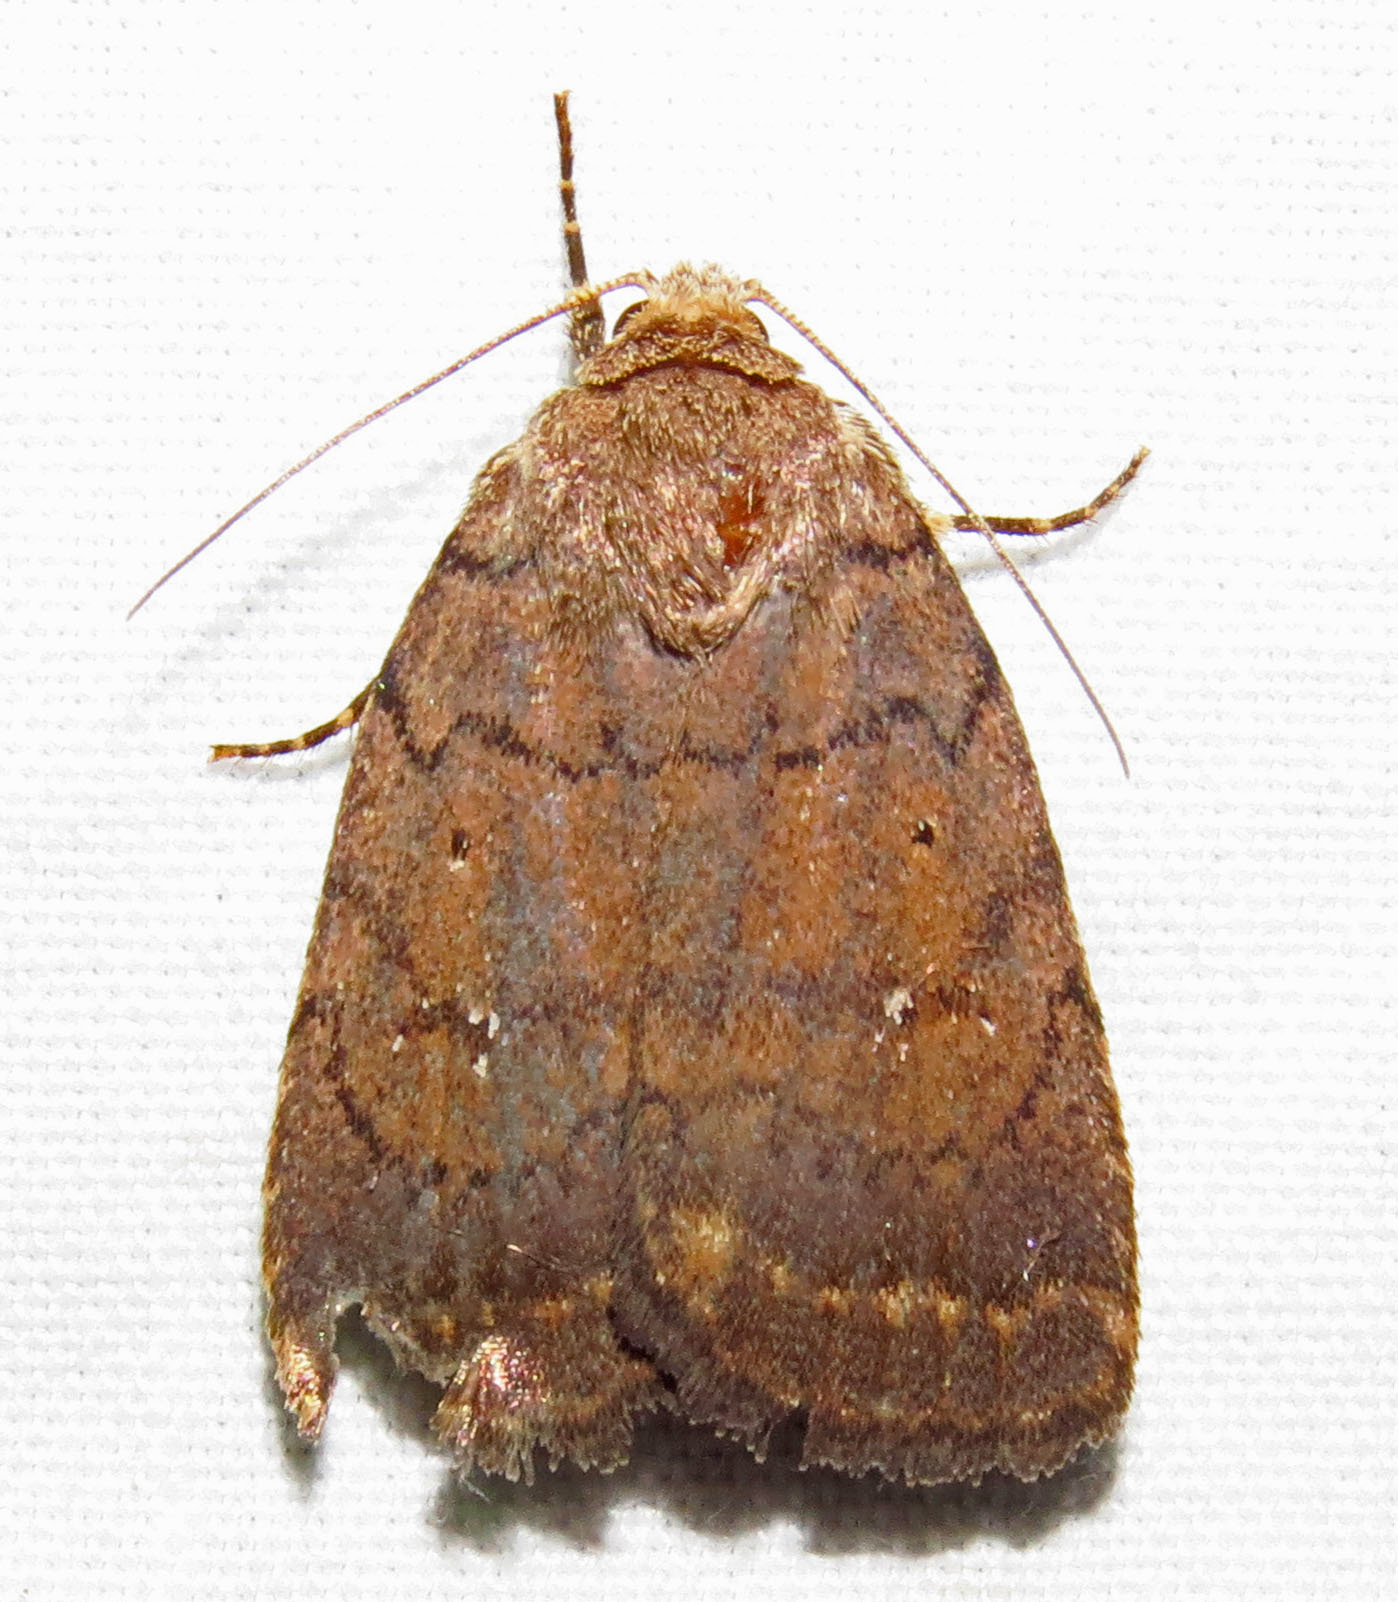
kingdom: Animalia
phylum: Arthropoda
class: Insecta
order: Lepidoptera
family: Noctuidae
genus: Athetis
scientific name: Athetis tarda
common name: Slowpoke moth
